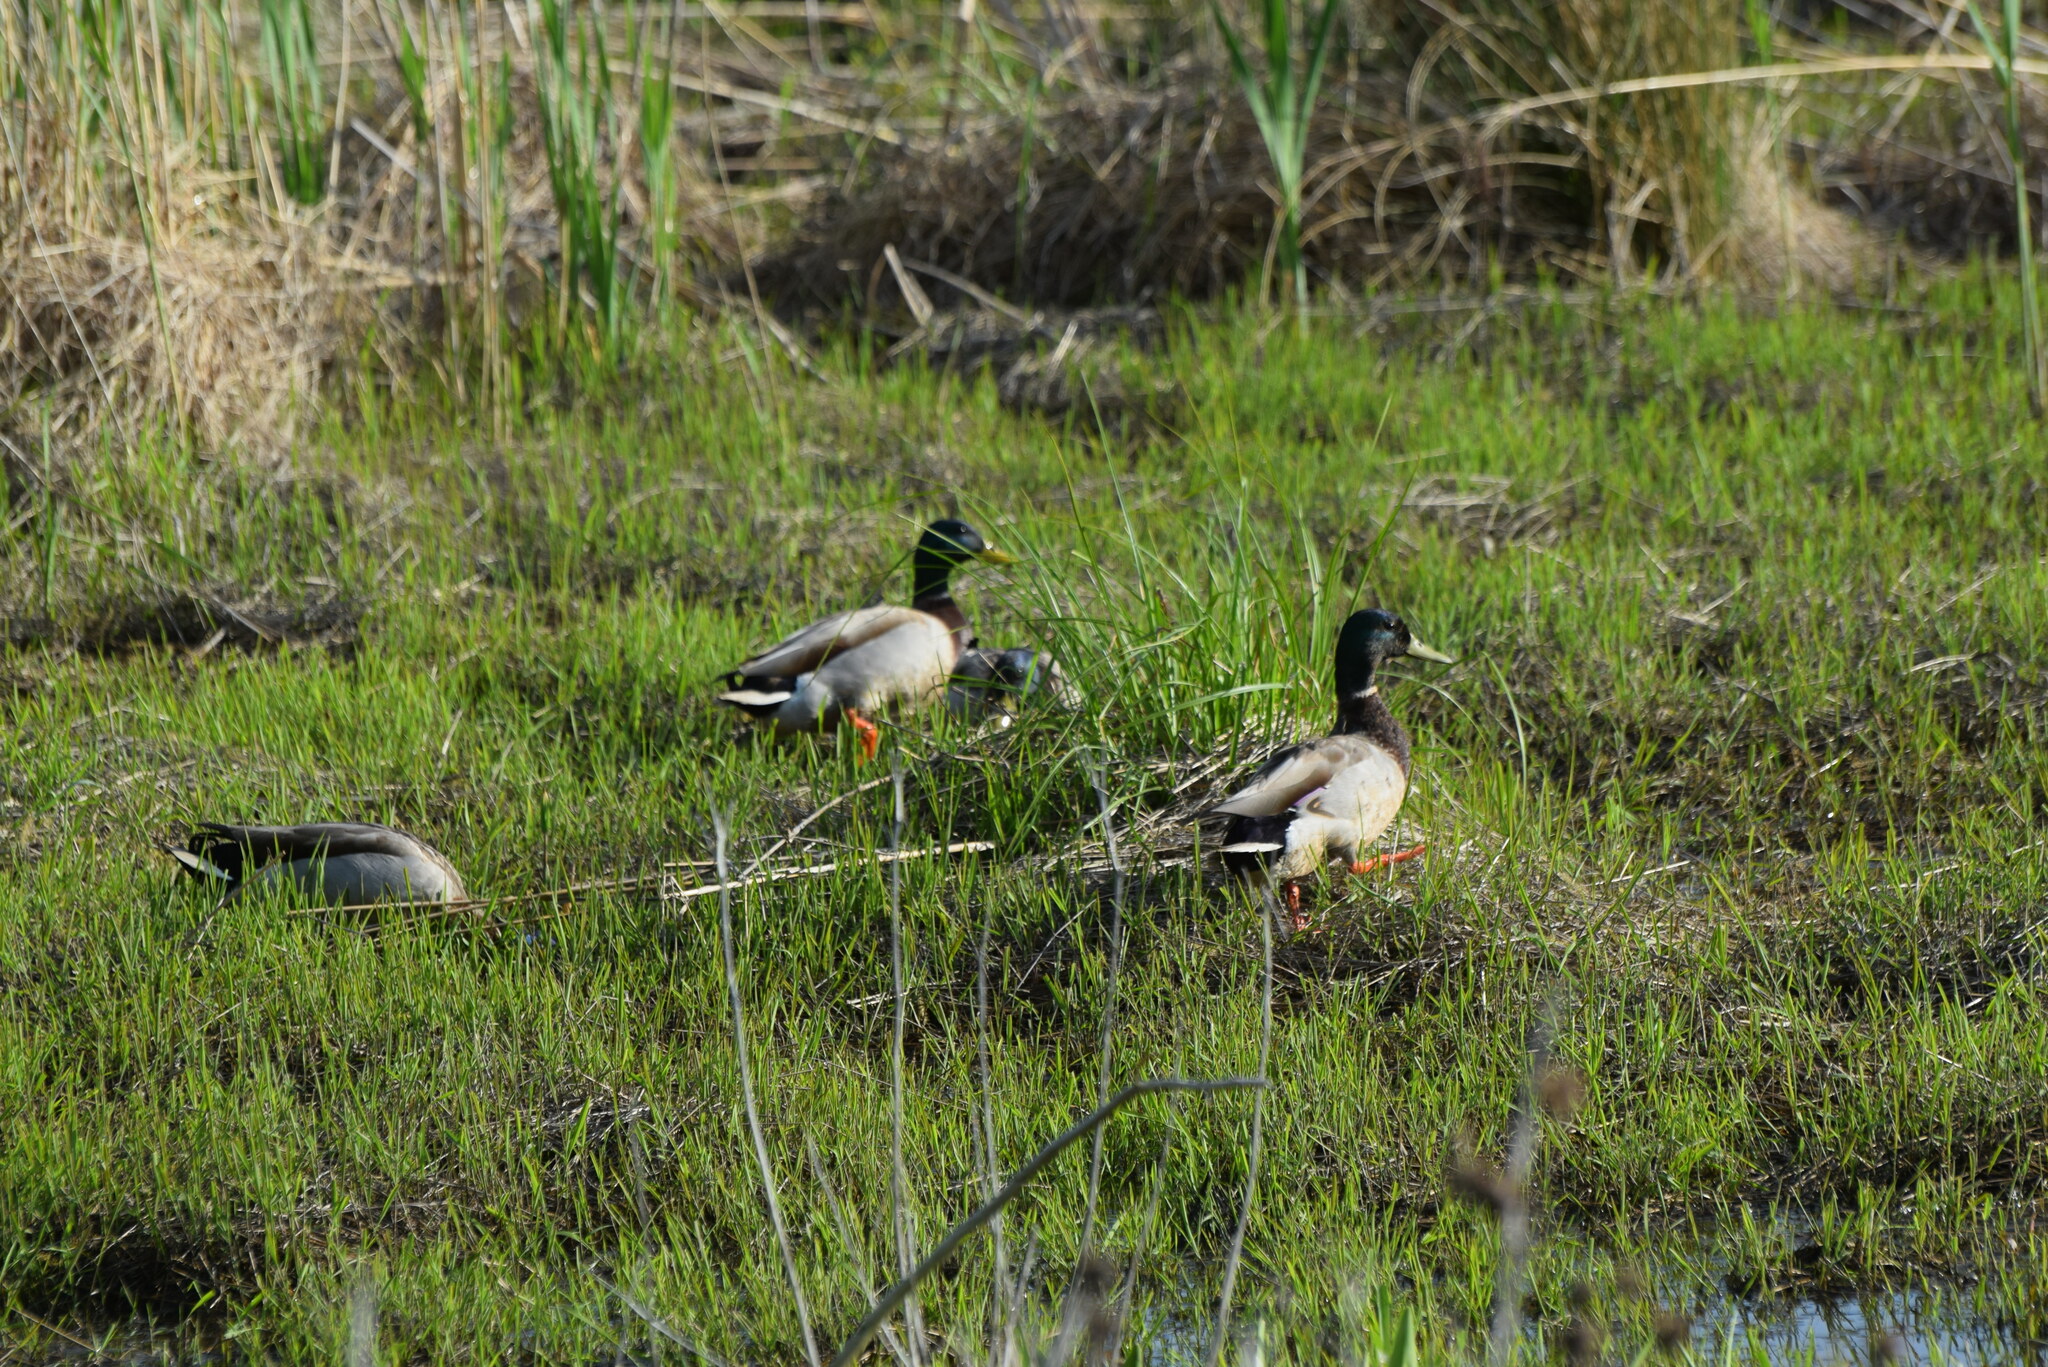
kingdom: Animalia
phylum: Chordata
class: Aves
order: Anseriformes
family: Anatidae
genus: Anas
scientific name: Anas platyrhynchos
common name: Mallard
